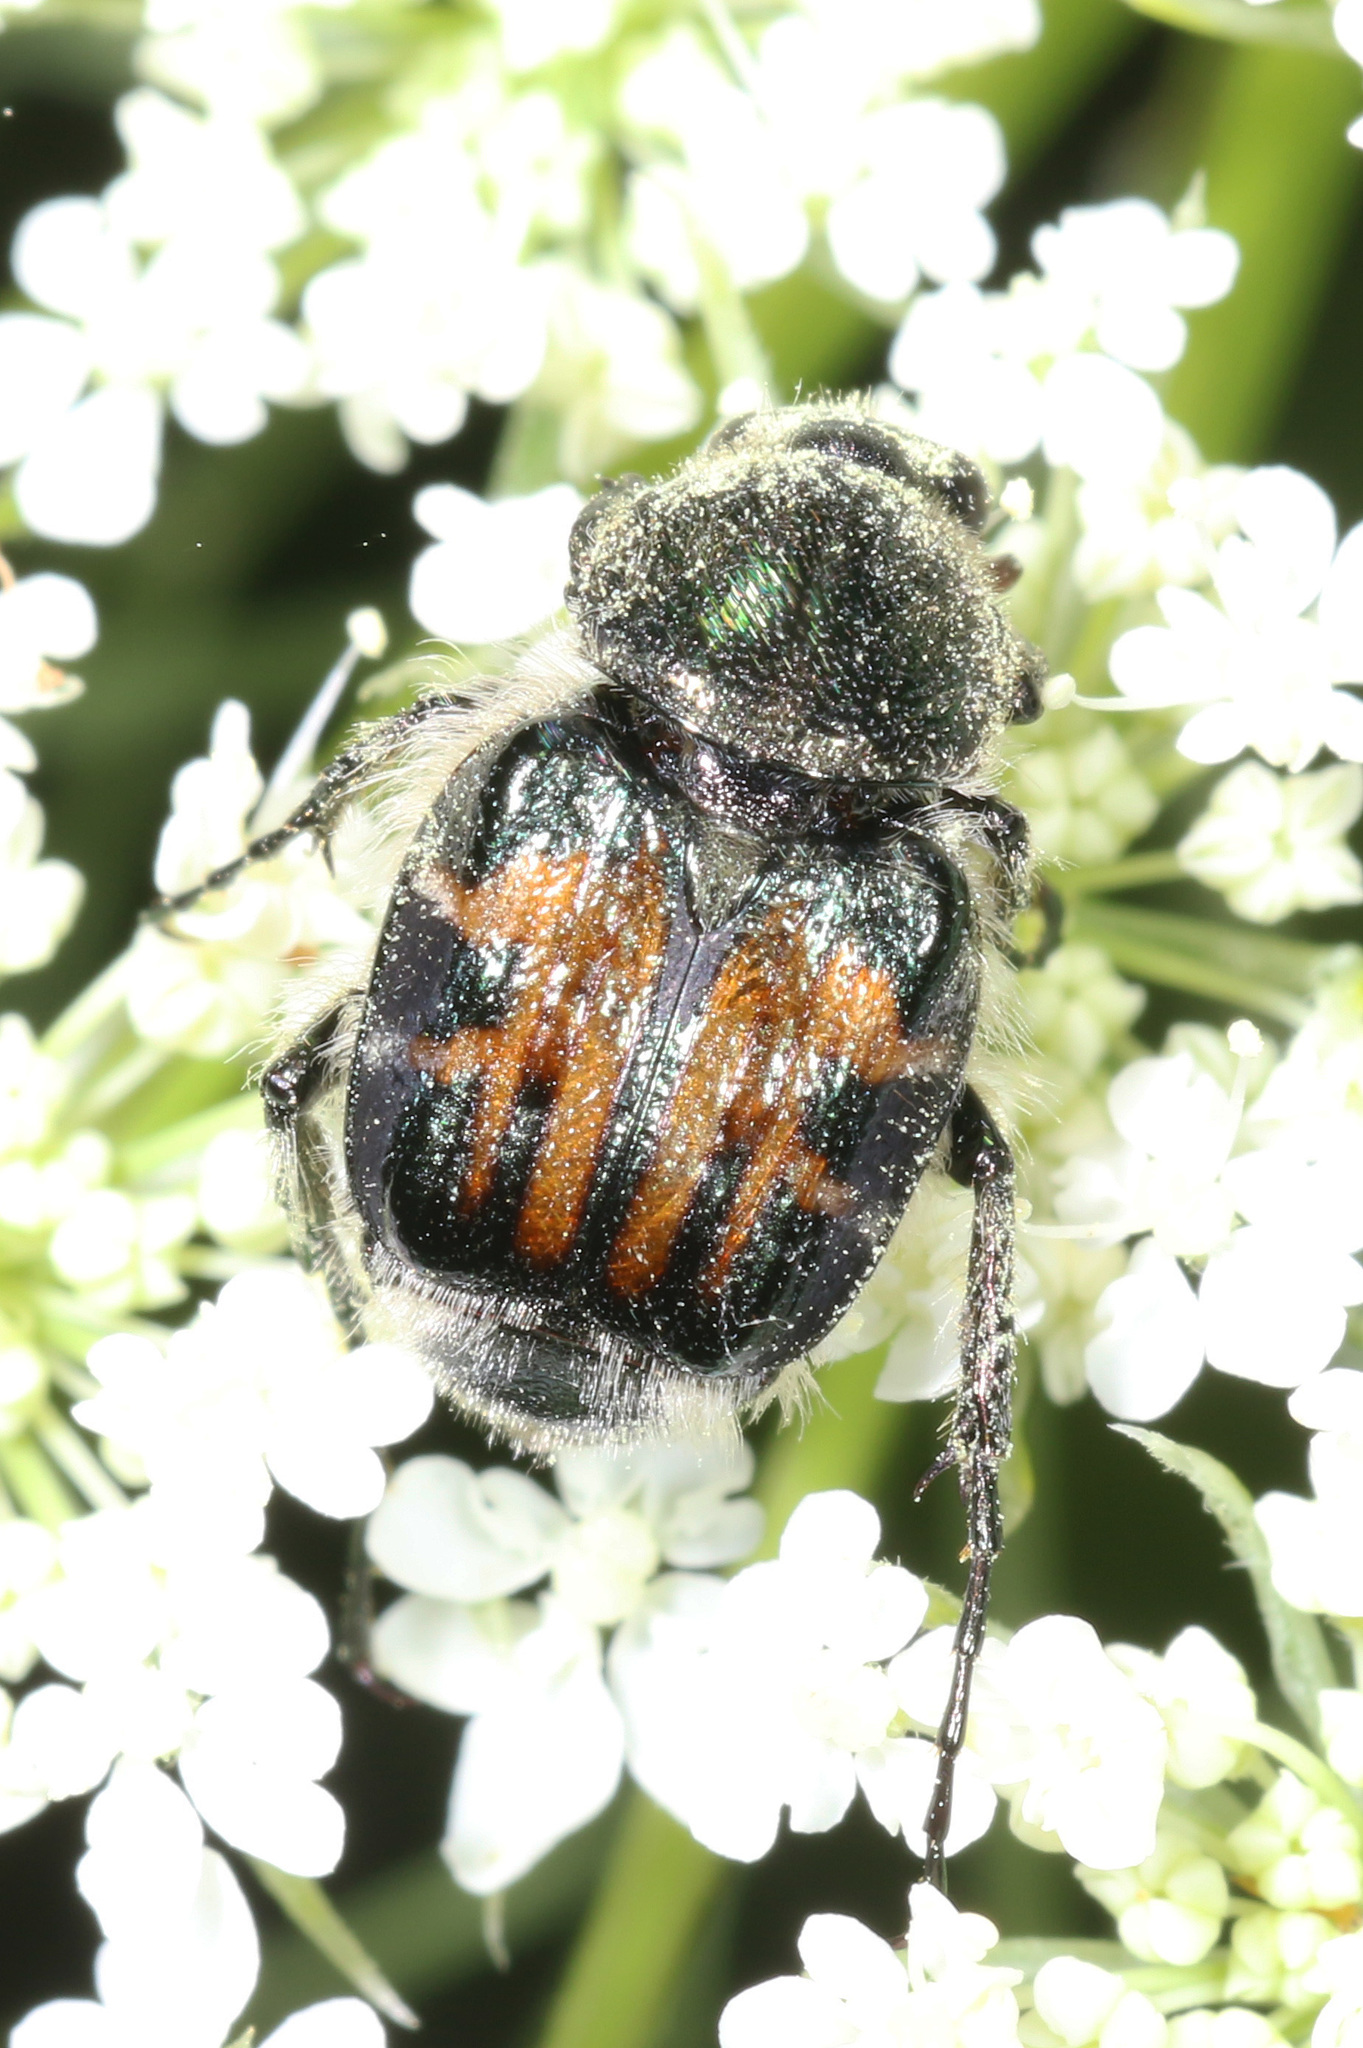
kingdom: Animalia
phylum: Arthropoda
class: Insecta
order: Coleoptera
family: Scarabaeidae
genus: Trichiotinus
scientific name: Trichiotinus affinis
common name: Hairy flower scarab
